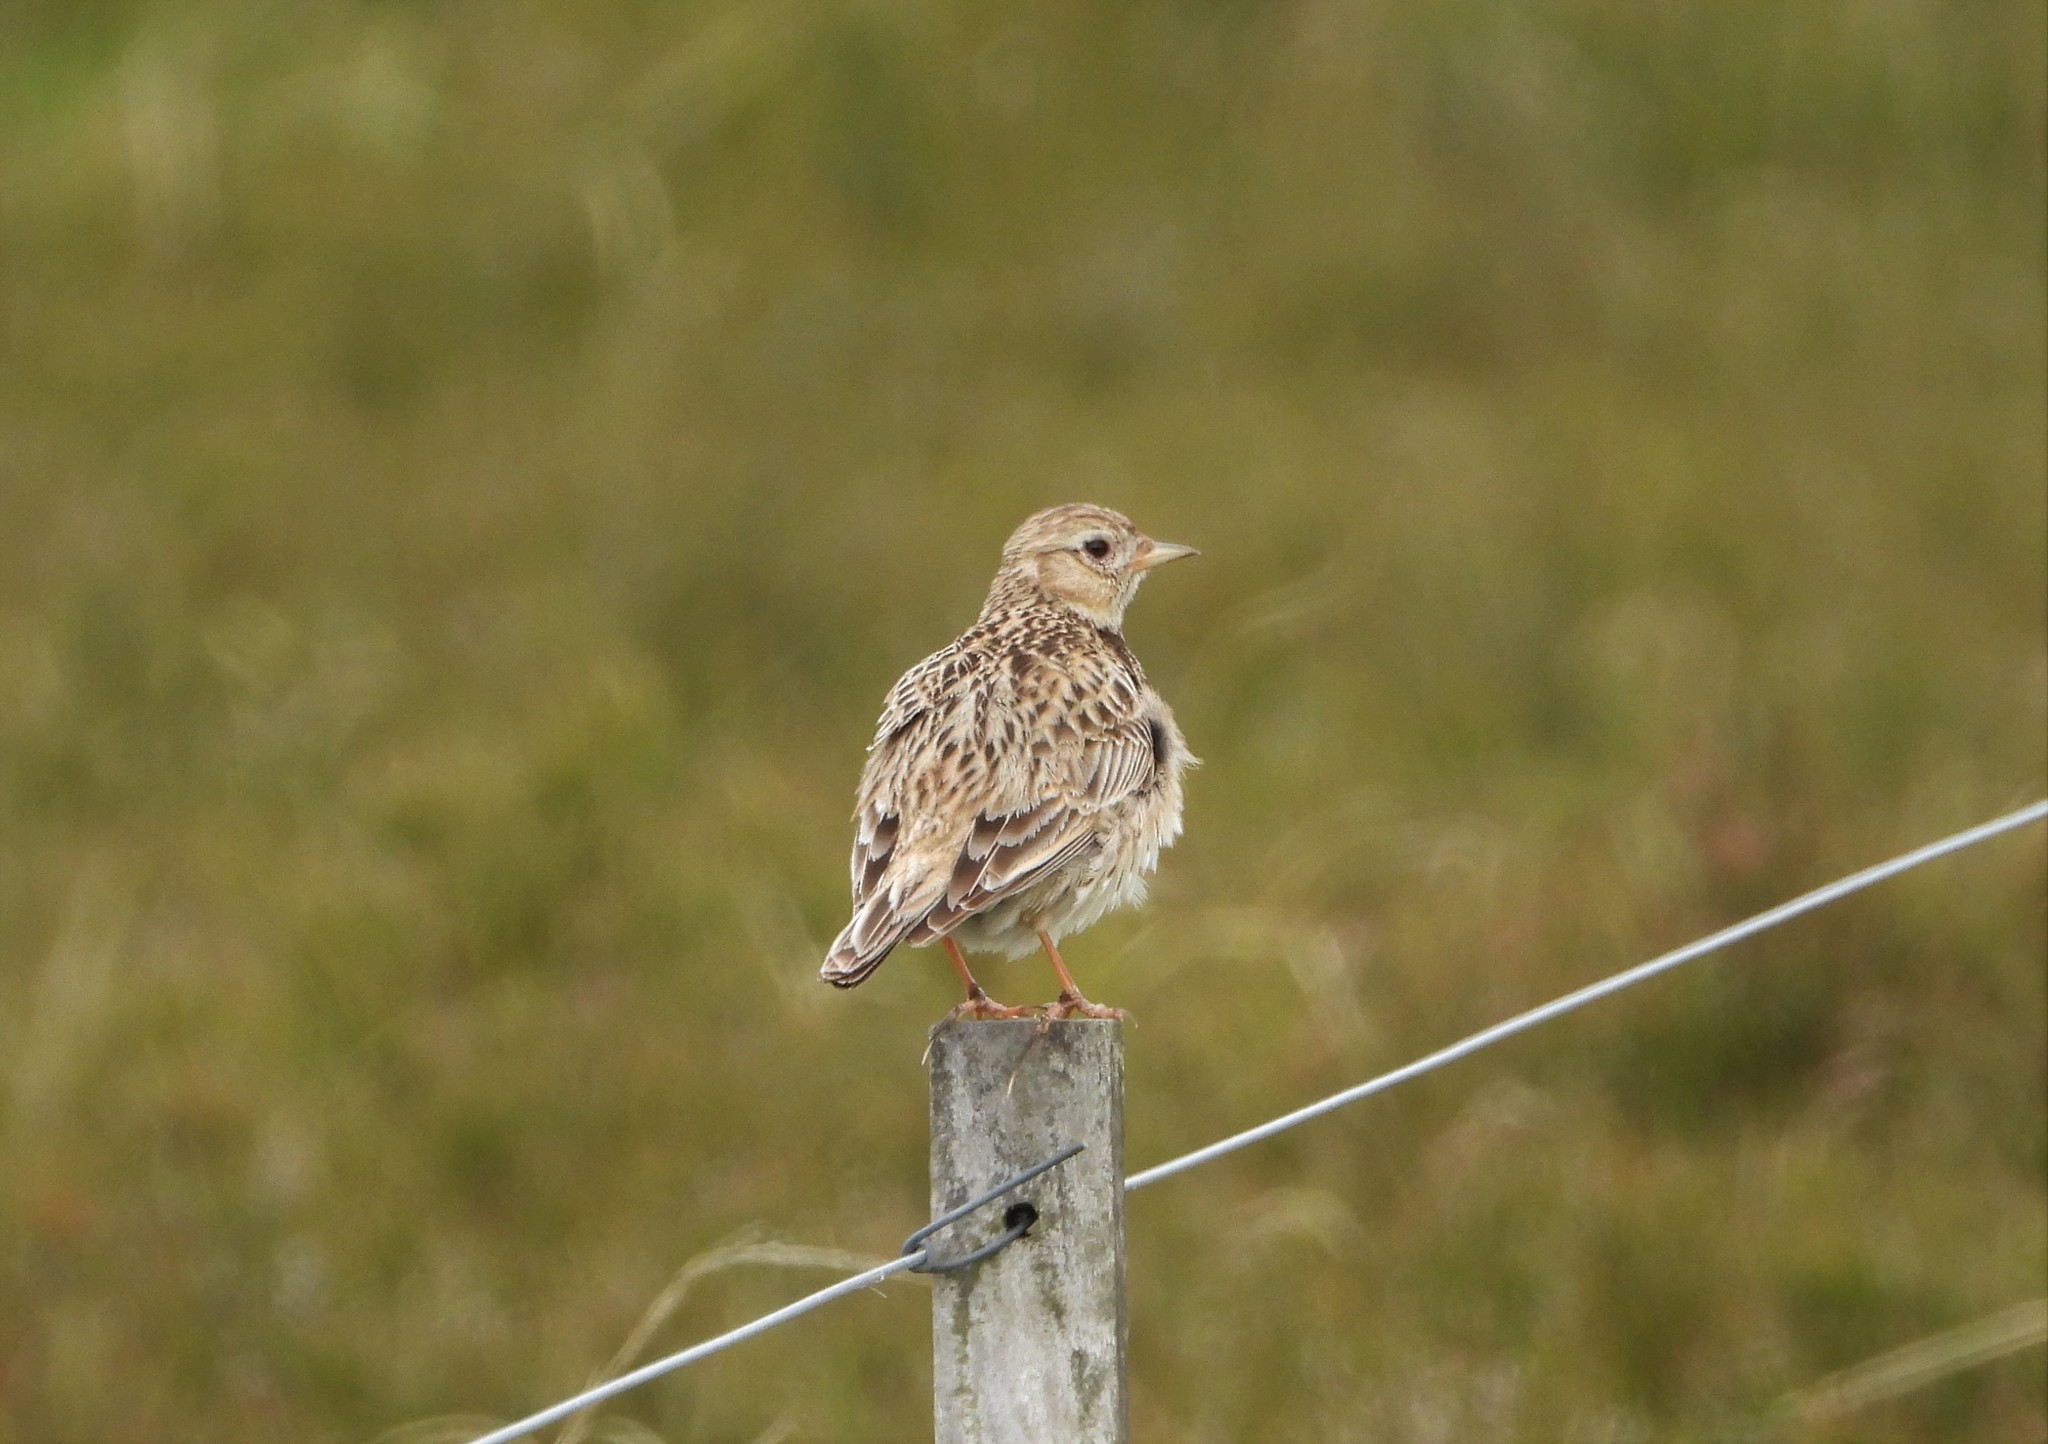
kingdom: Animalia
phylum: Chordata
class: Aves
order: Passeriformes
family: Alaudidae
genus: Alauda
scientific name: Alauda arvensis
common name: Eurasian skylark
